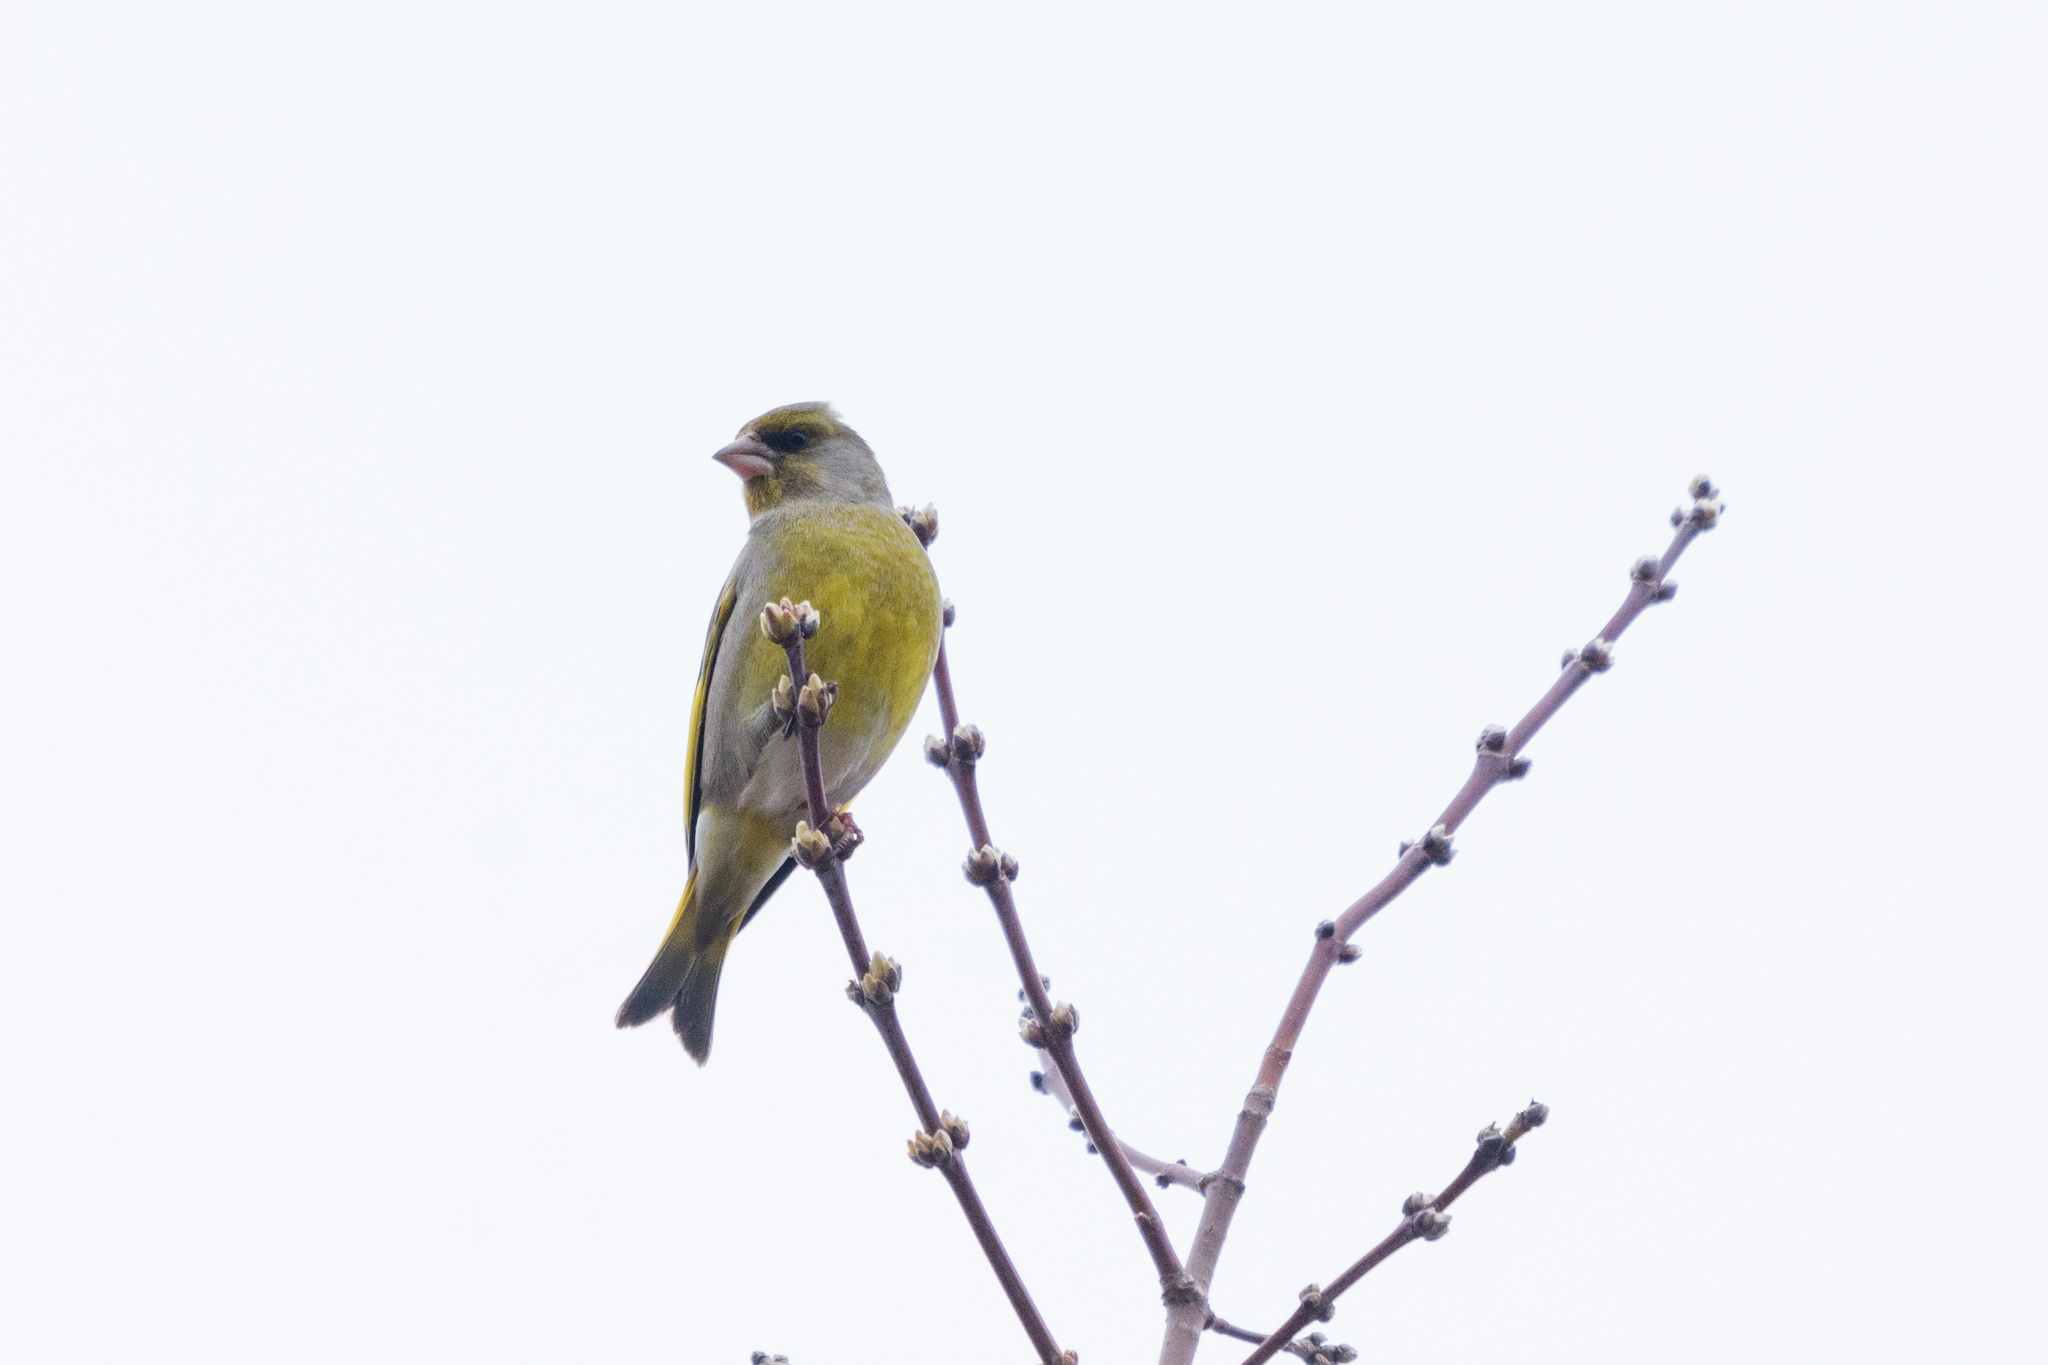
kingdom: Plantae
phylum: Tracheophyta
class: Liliopsida
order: Poales
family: Poaceae
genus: Chloris
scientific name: Chloris chloris
